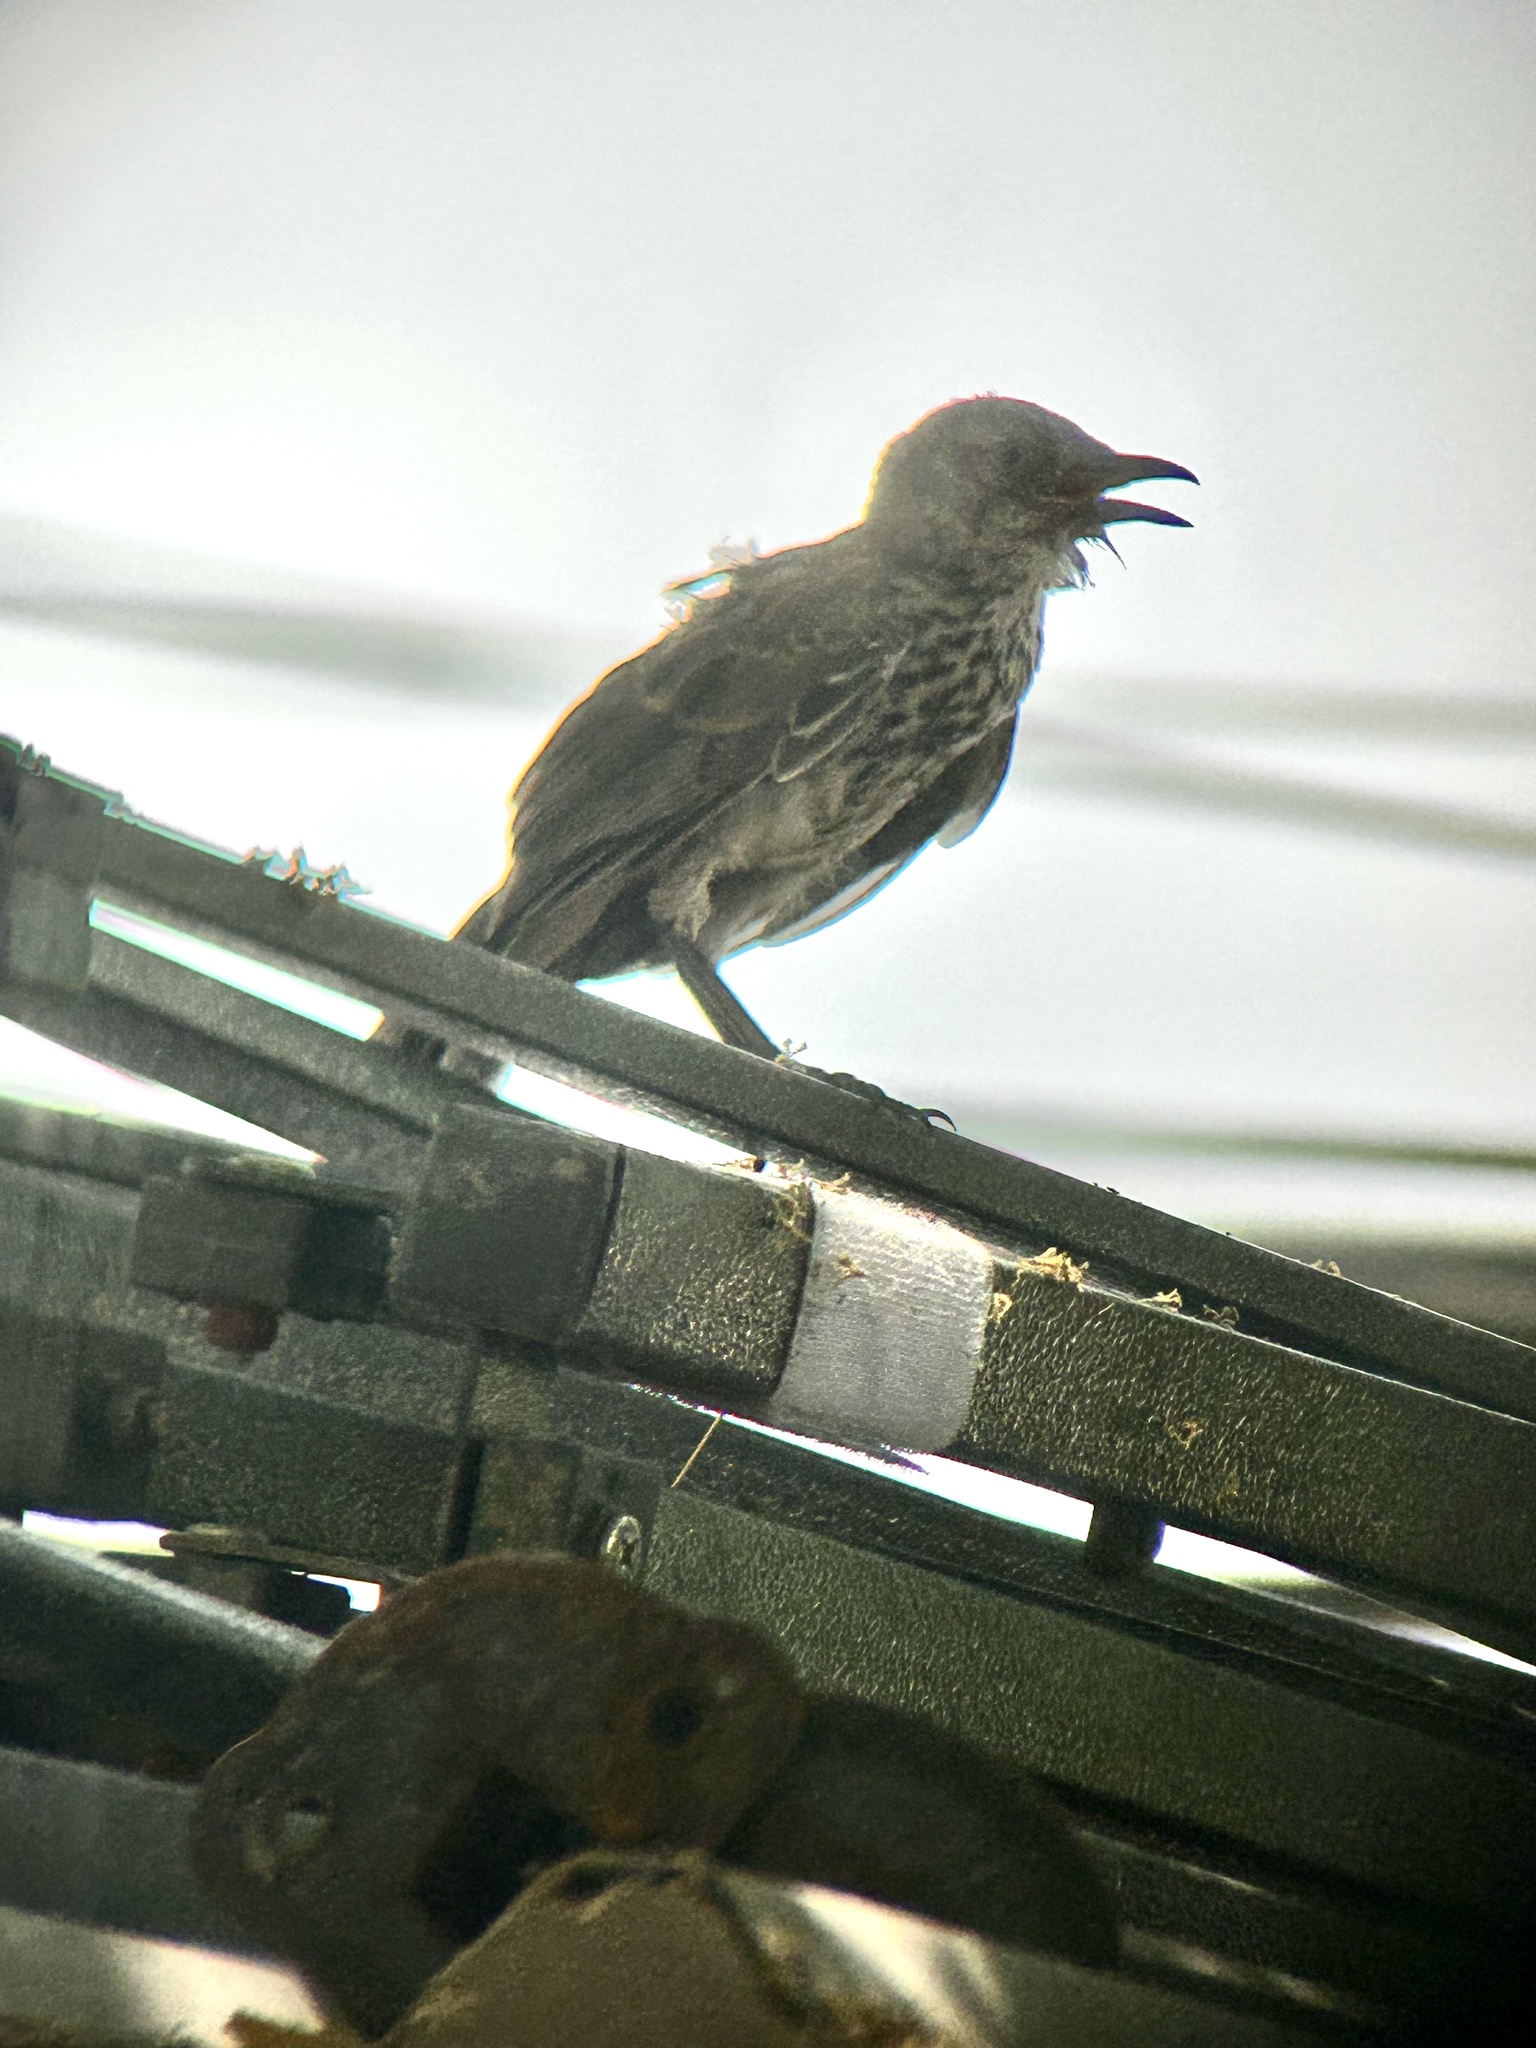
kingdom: Animalia
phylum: Chordata
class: Aves
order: Passeriformes
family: Mimidae
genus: Toxostoma
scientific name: Toxostoma cinereum
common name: Gray thrasher
